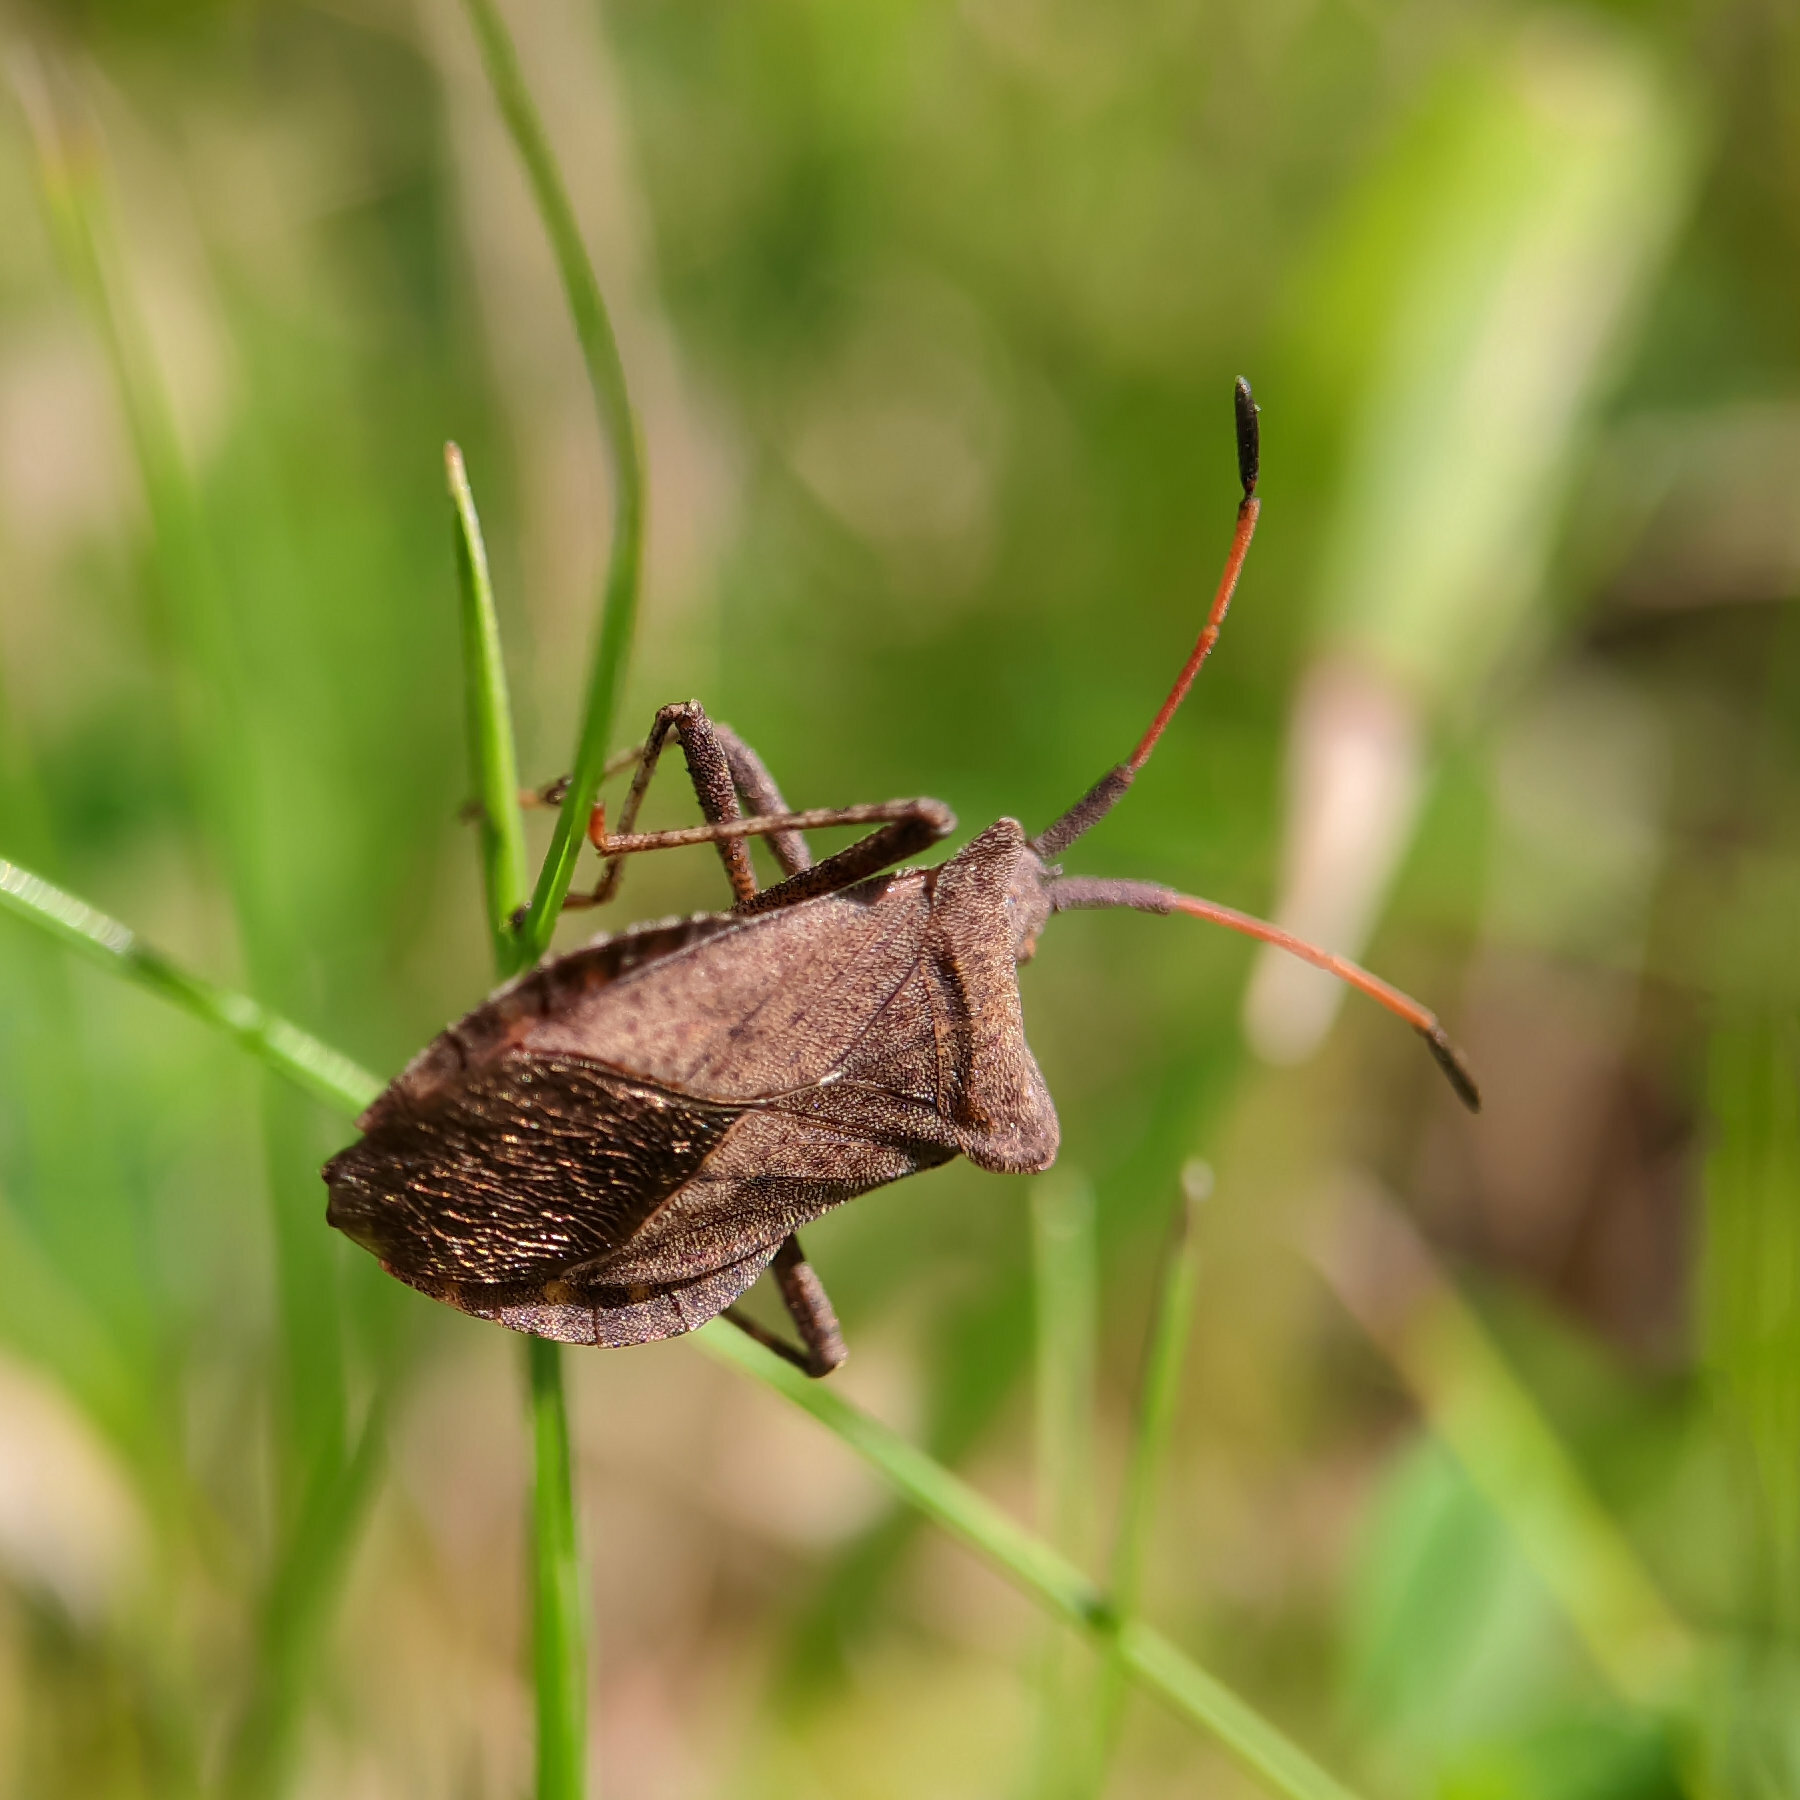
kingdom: Animalia
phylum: Arthropoda
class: Insecta
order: Hemiptera
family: Coreidae
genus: Coreus
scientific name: Coreus marginatus
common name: Dock bug
